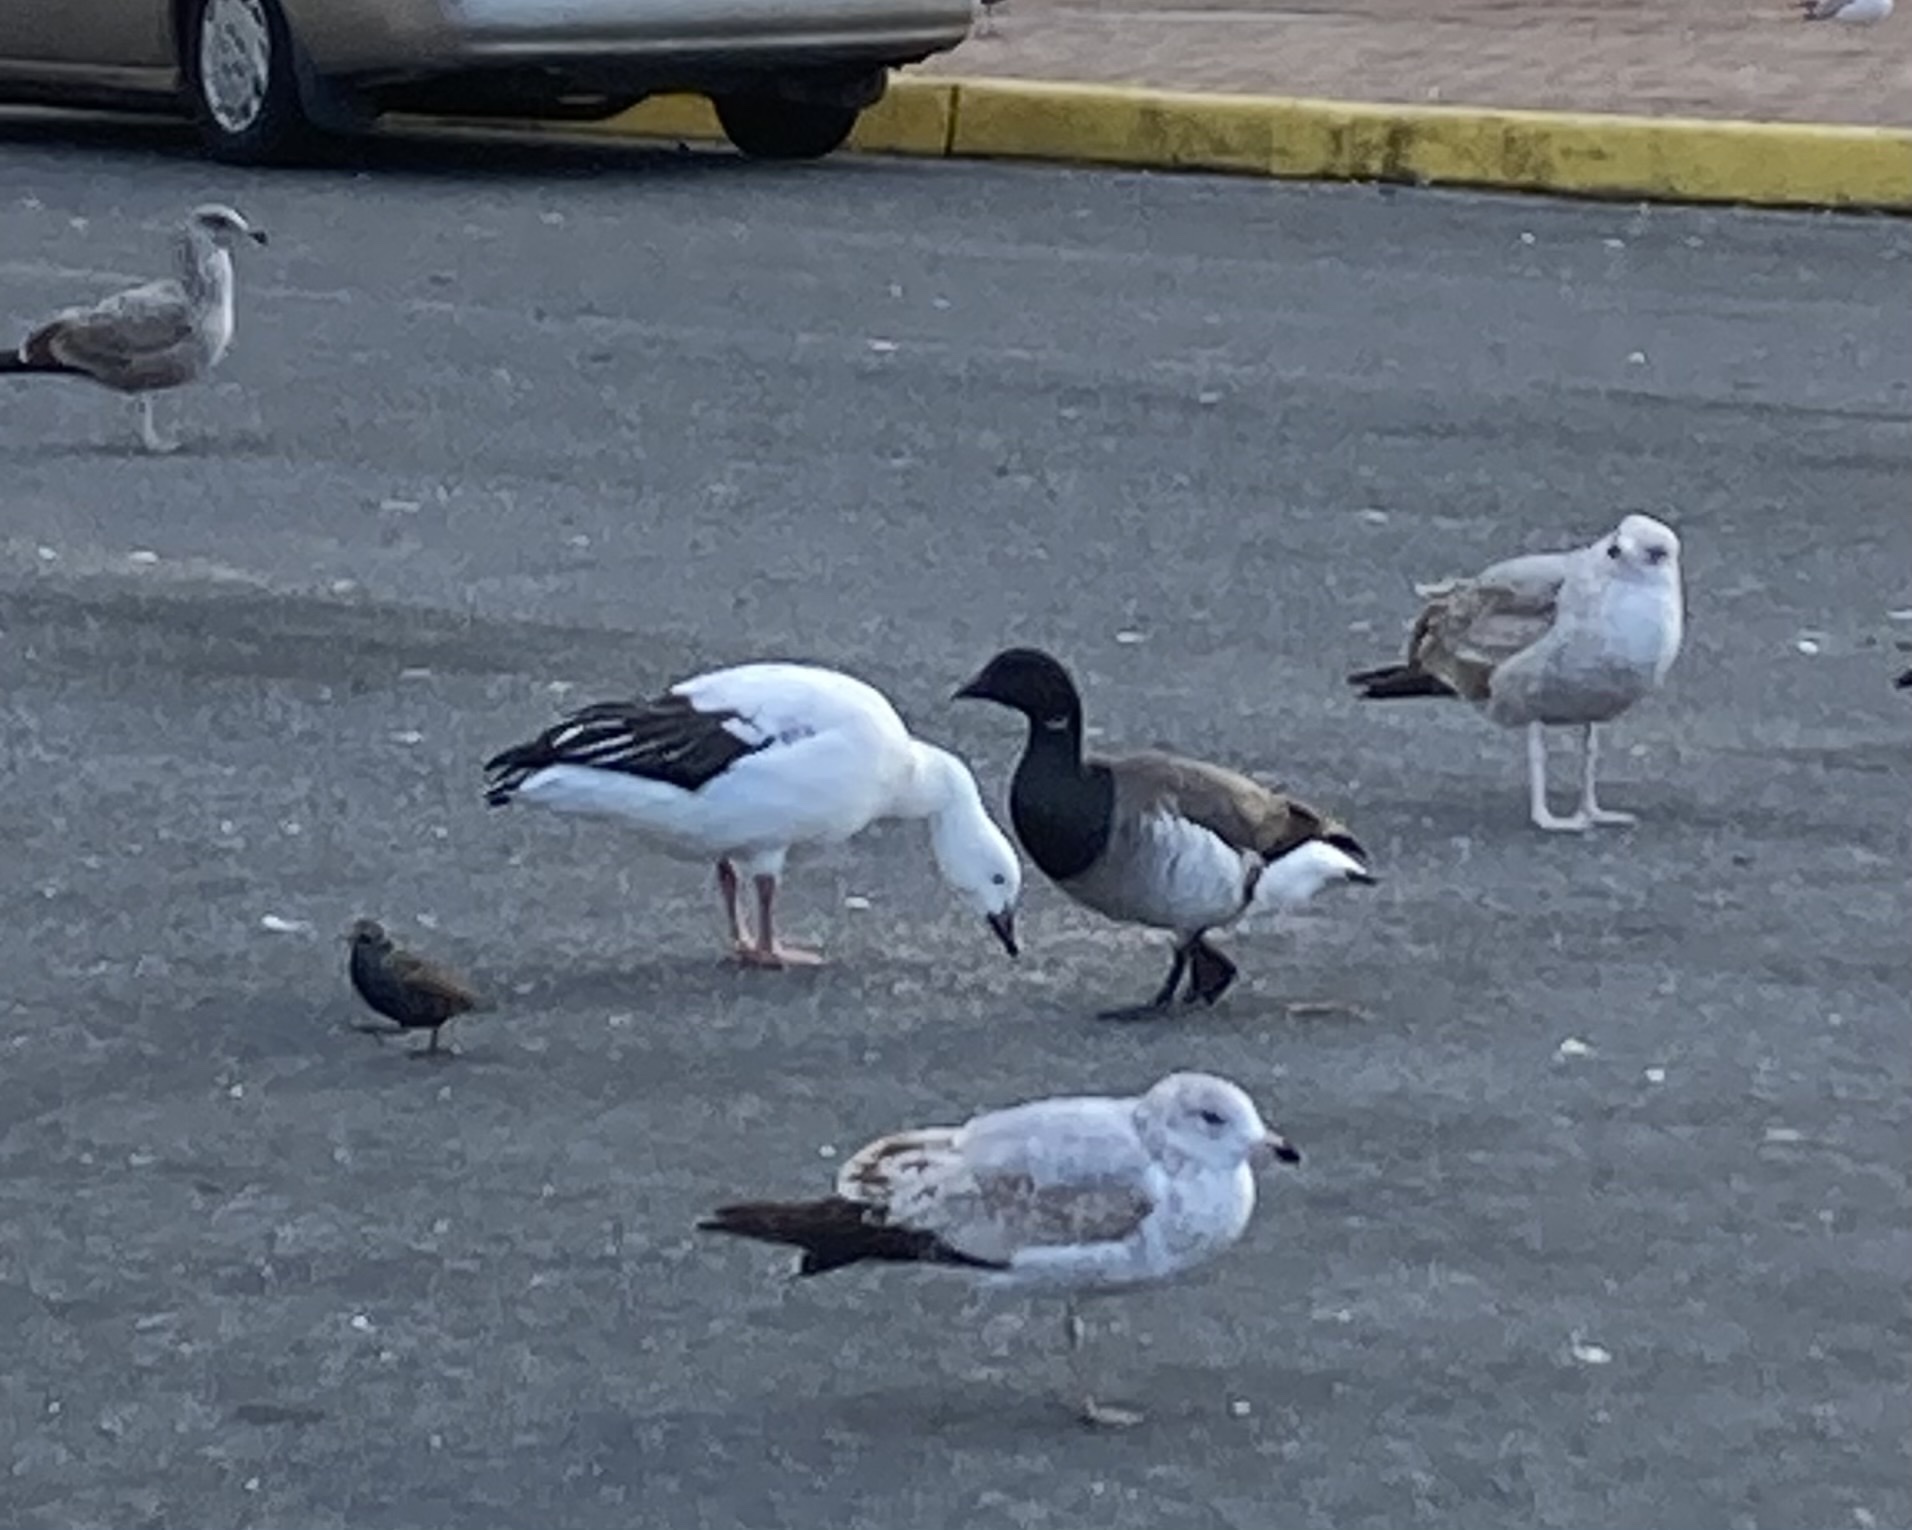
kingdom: Animalia
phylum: Chordata
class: Aves
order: Anseriformes
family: Anatidae
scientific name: Anatidae
